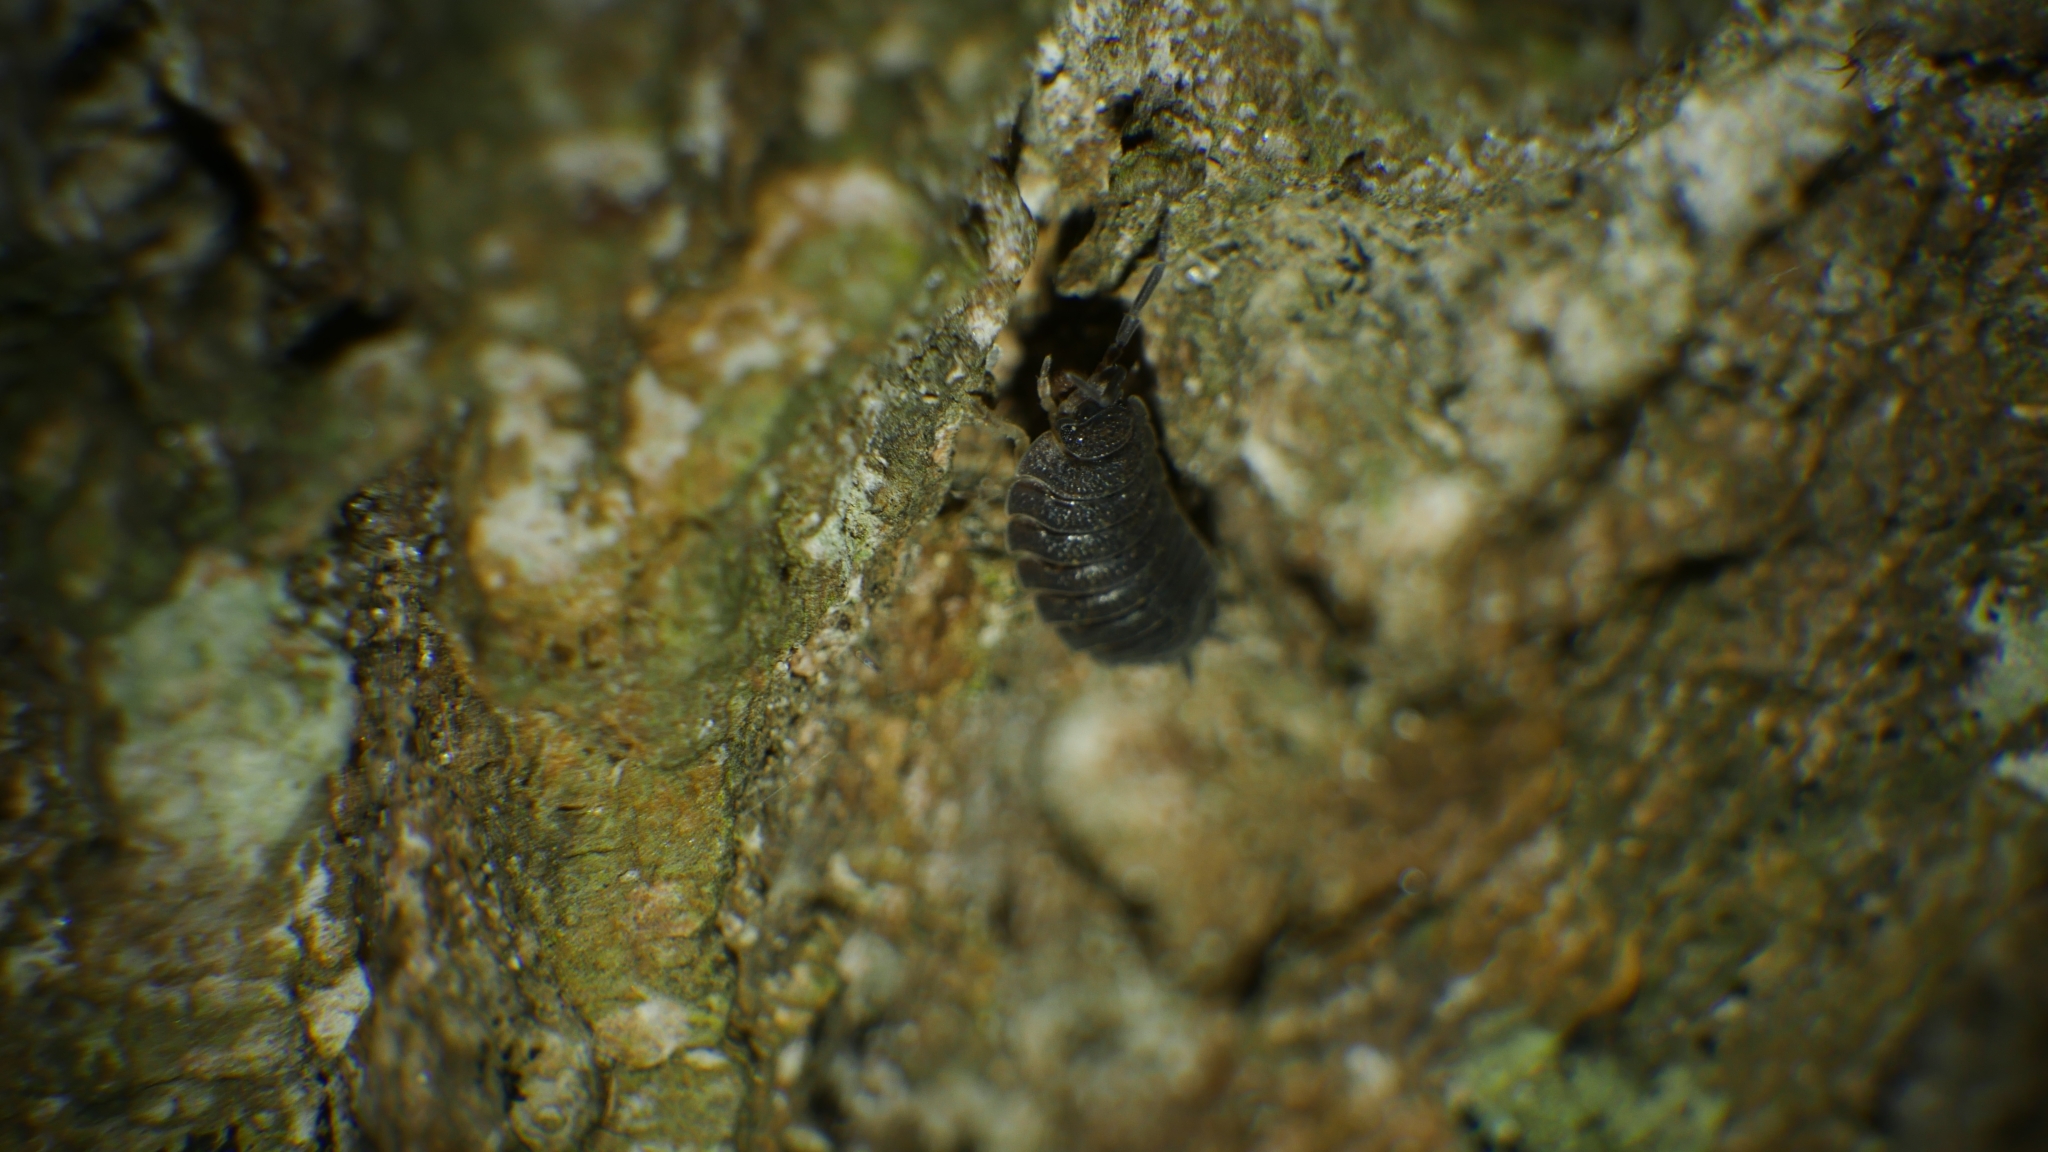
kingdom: Animalia
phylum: Arthropoda
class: Malacostraca
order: Isopoda
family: Porcellionidae
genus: Porcellio
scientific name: Porcellio scaber
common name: Common rough woodlouse
